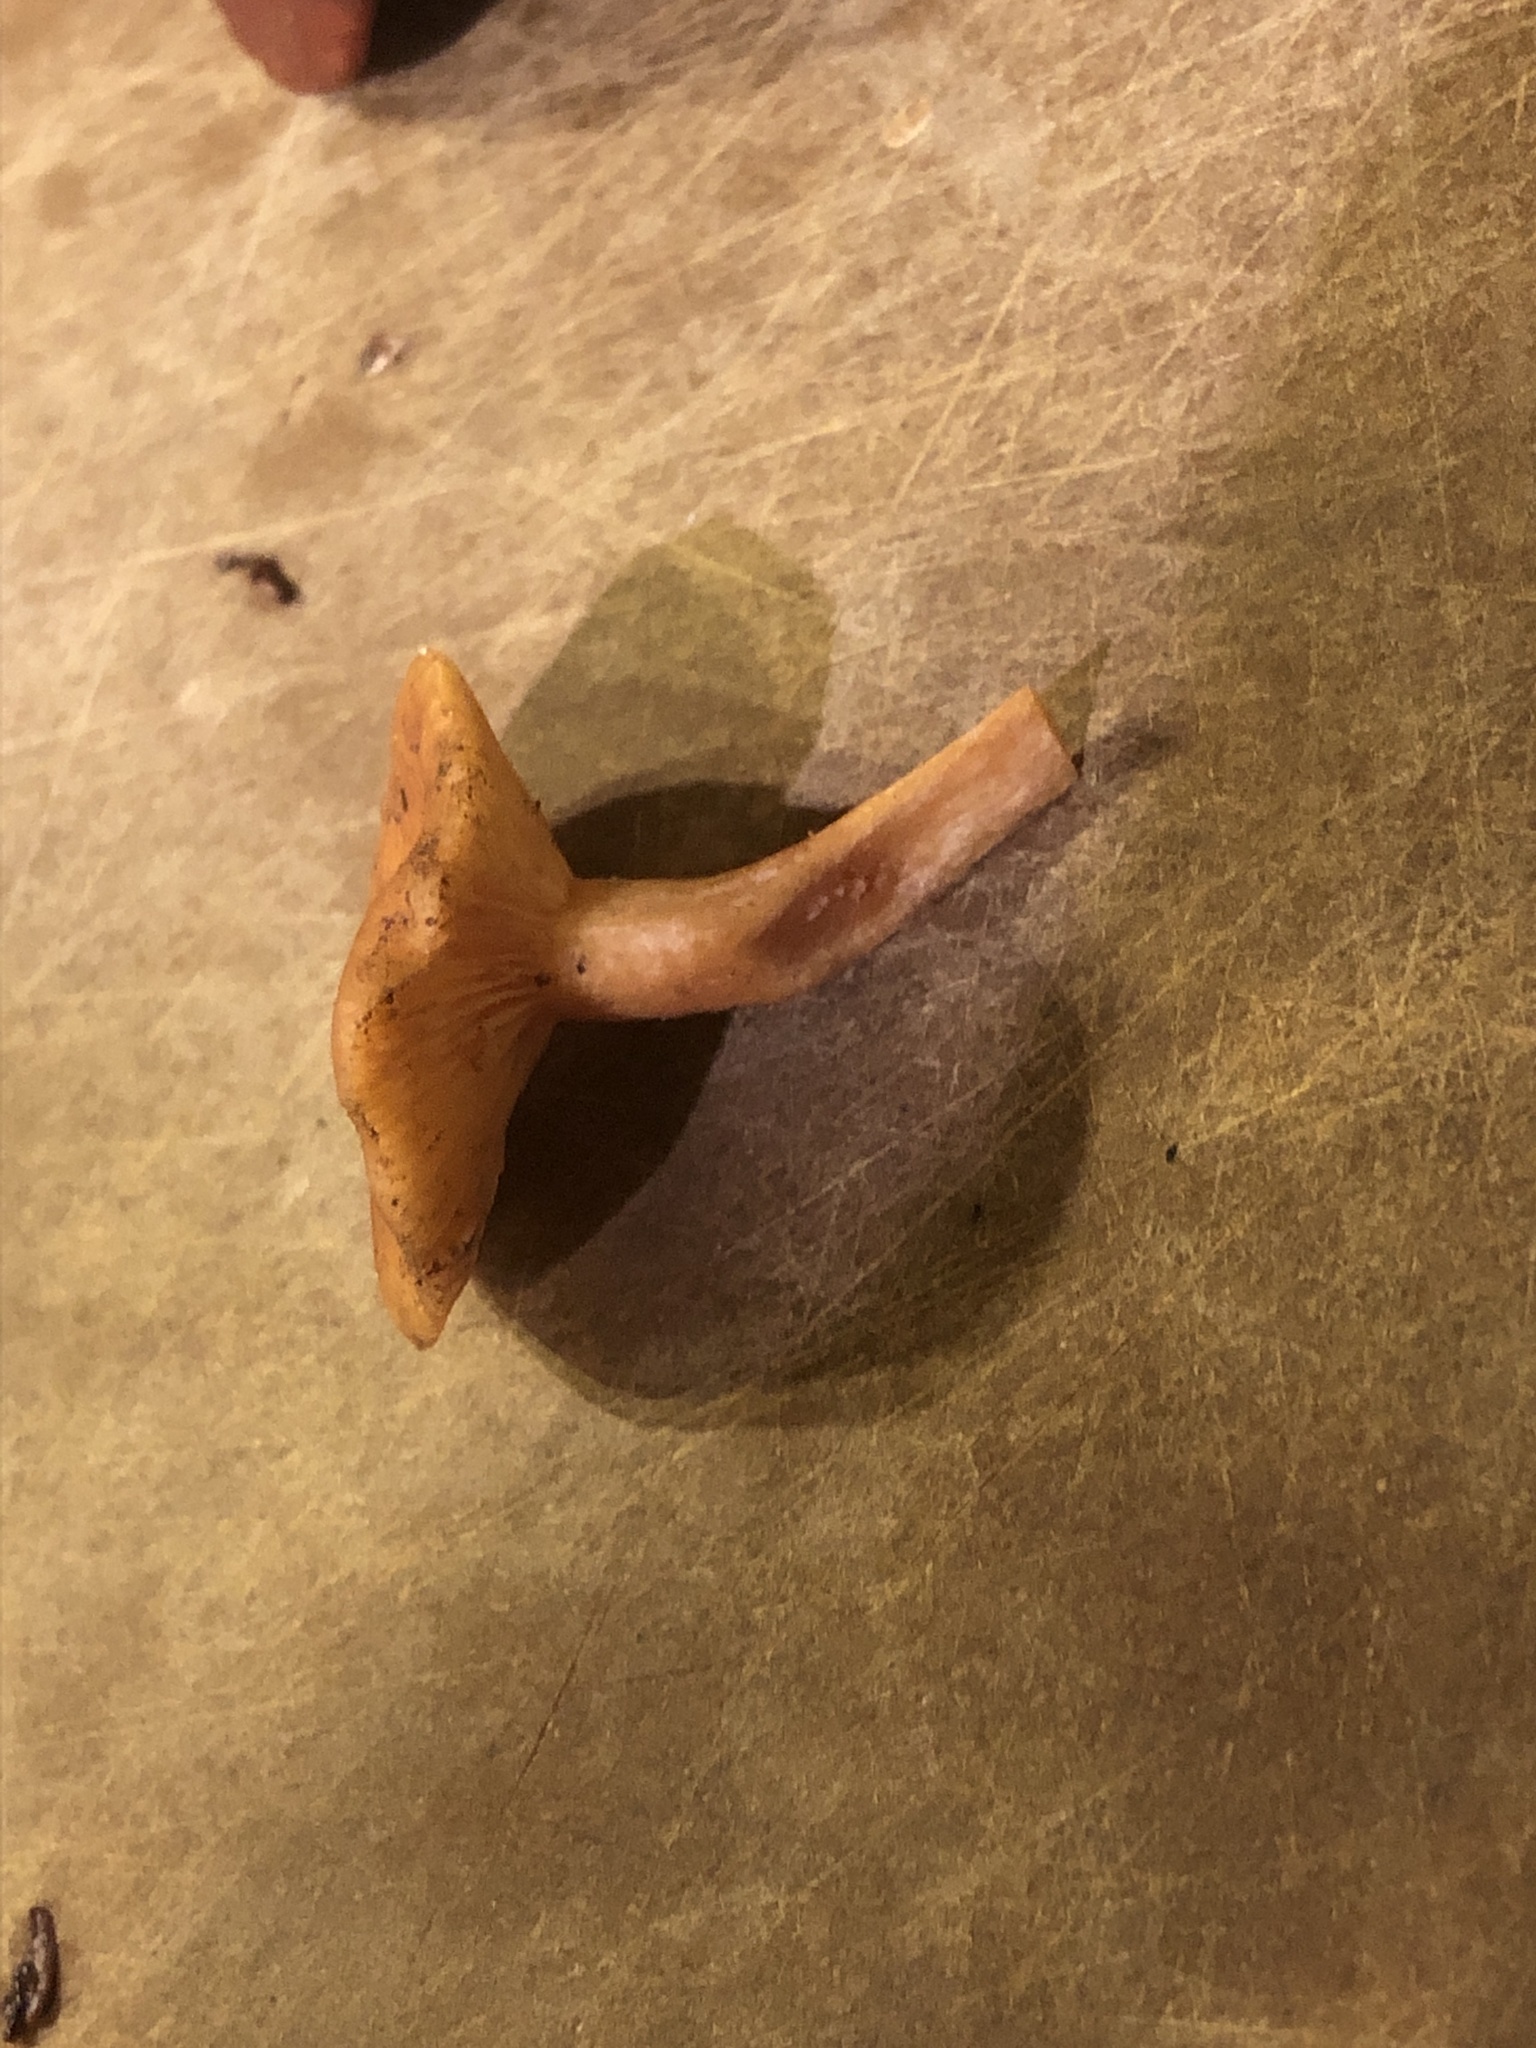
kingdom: Fungi
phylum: Basidiomycota
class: Agaricomycetes
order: Russulales
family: Russulaceae
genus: Lactarius
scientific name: Lactarius rubidus
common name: Candy cap
